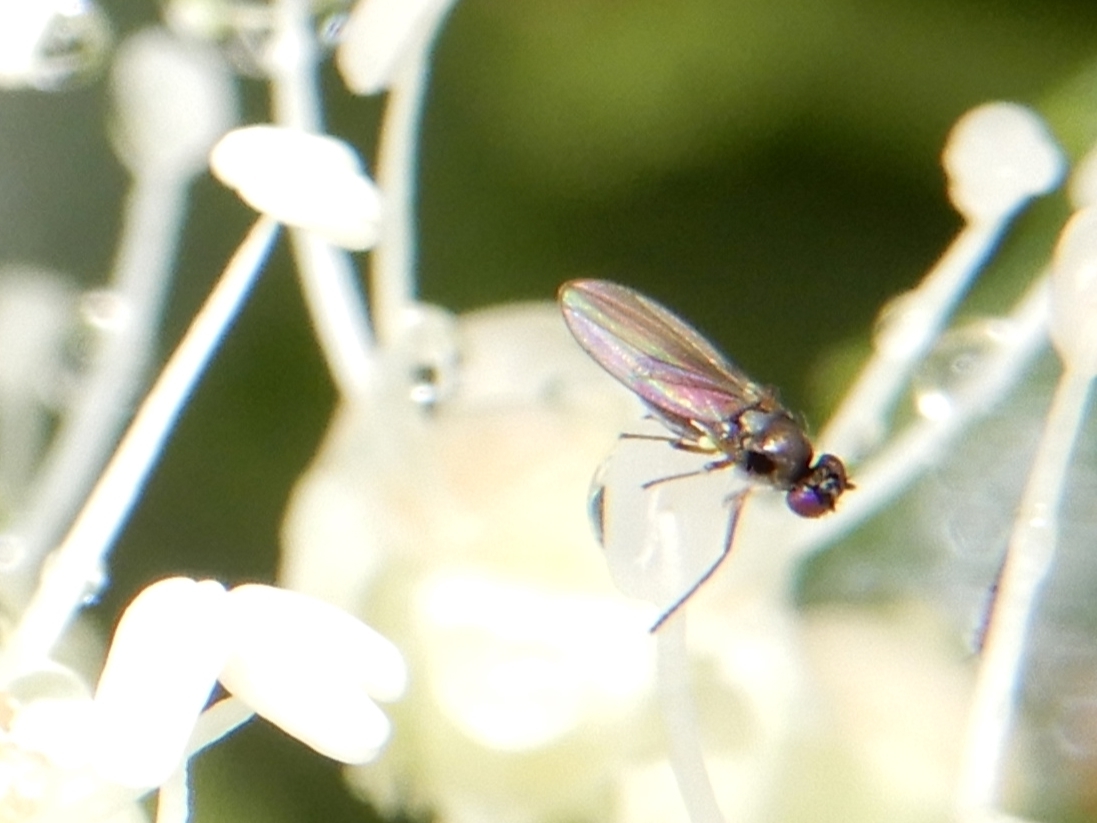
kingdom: Animalia
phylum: Arthropoda
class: Insecta
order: Diptera
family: Ephydridae
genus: Hydrellia
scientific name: Hydrellia tritici
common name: Shore fly
